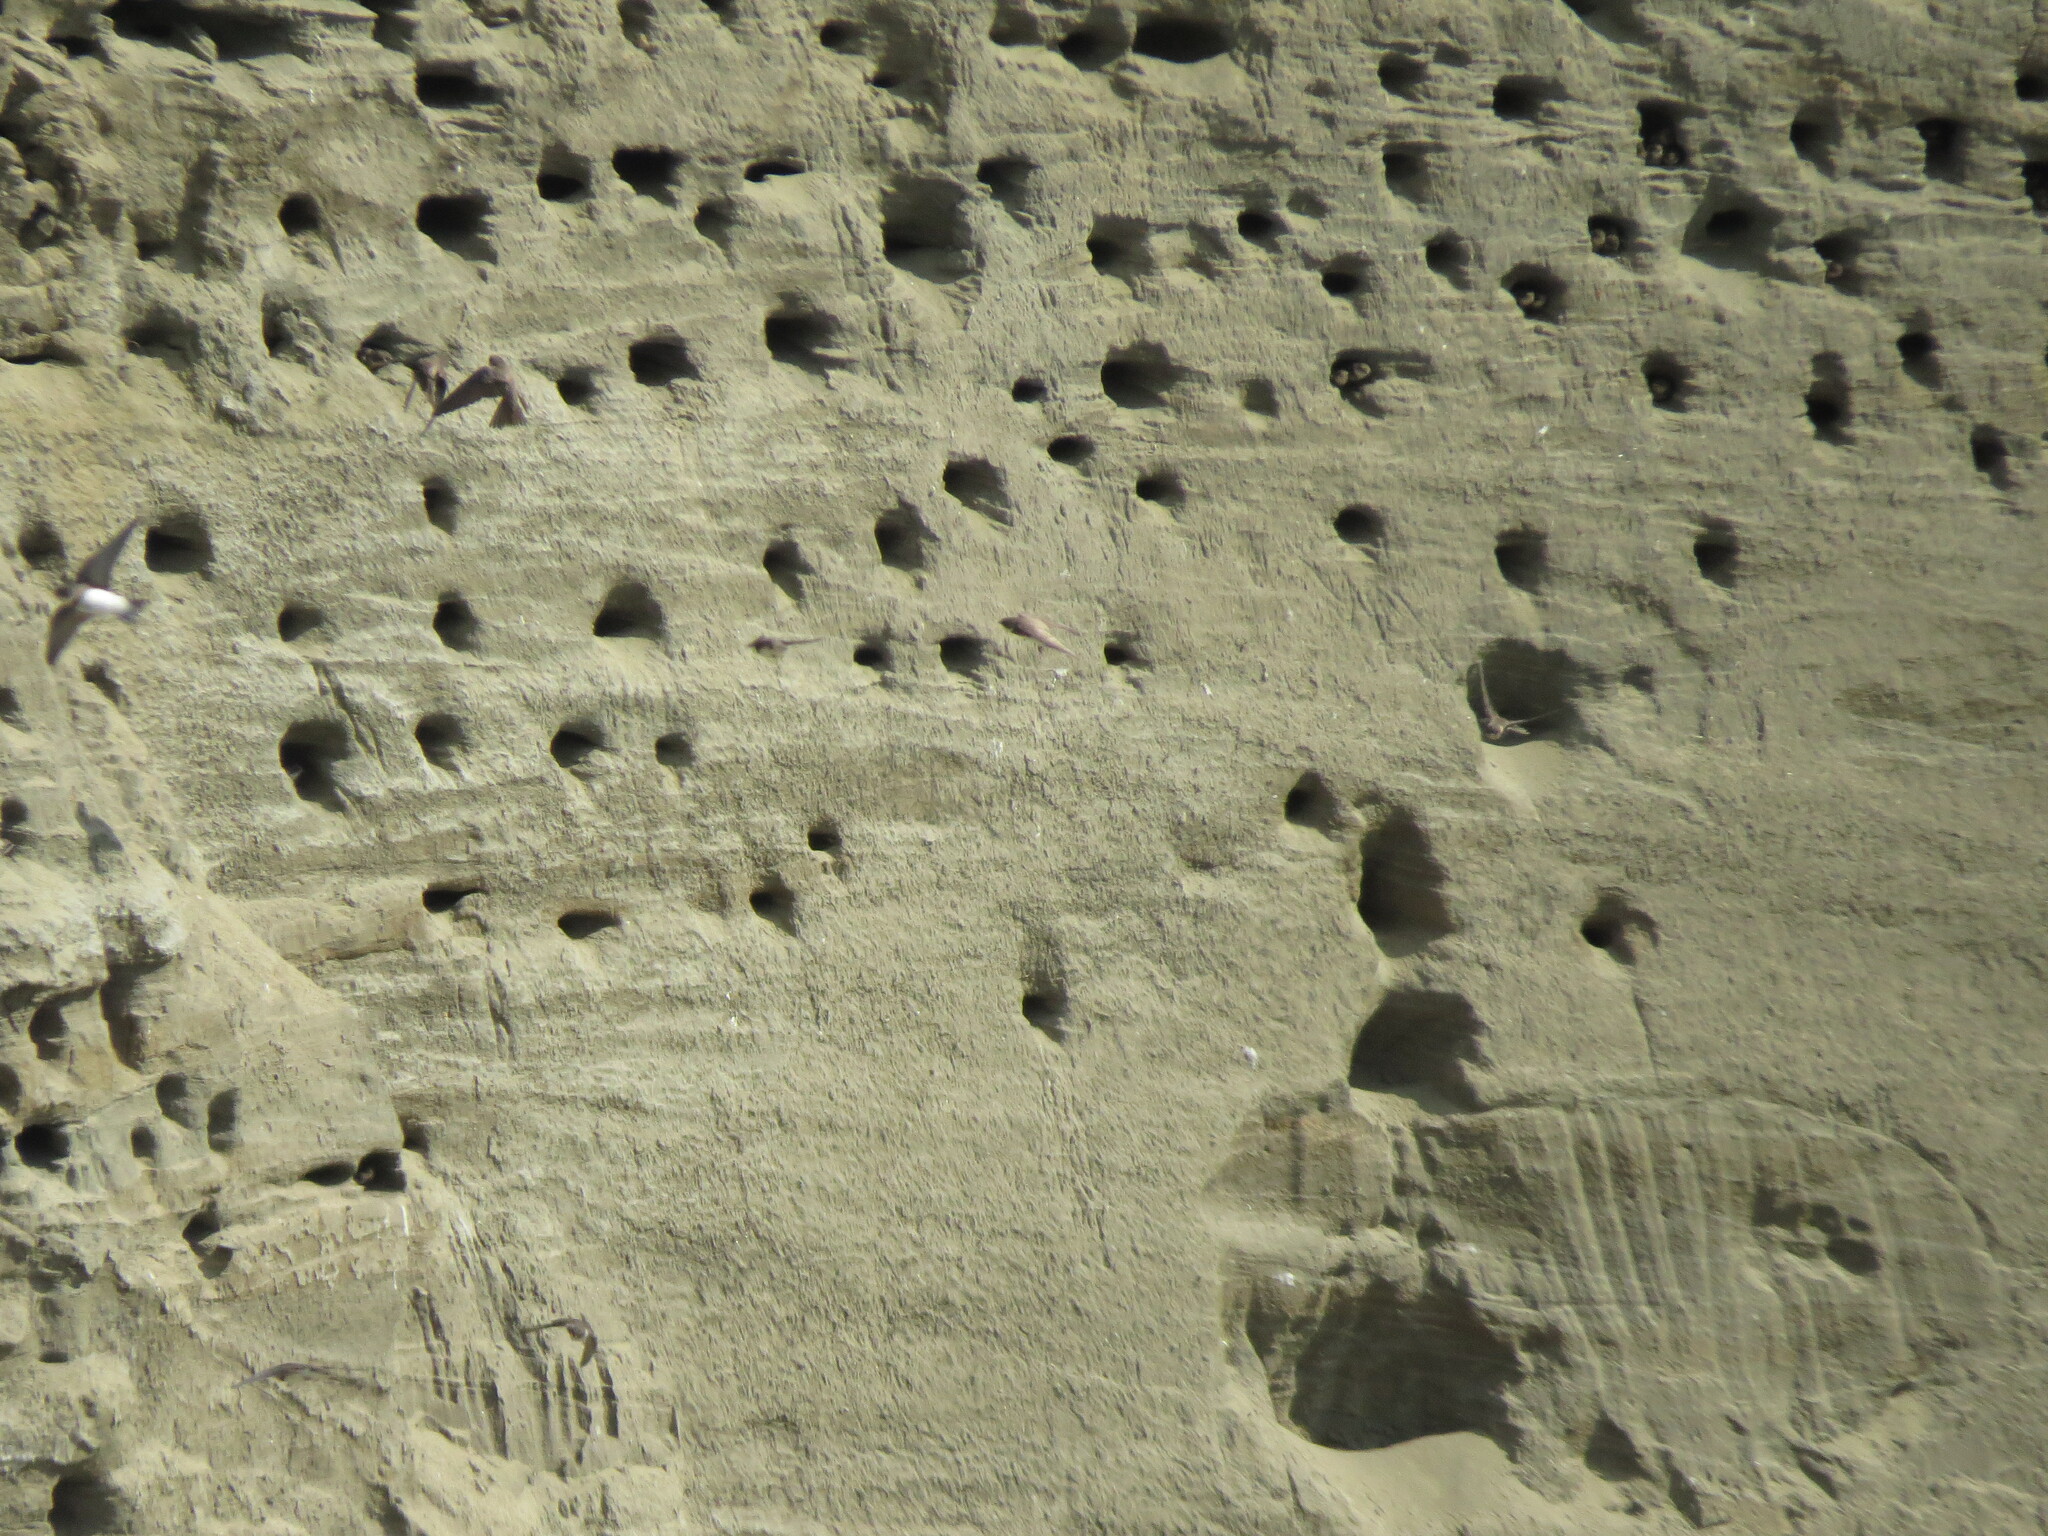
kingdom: Animalia
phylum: Chordata
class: Aves
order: Passeriformes
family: Hirundinidae
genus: Riparia
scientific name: Riparia riparia
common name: Sand martin
